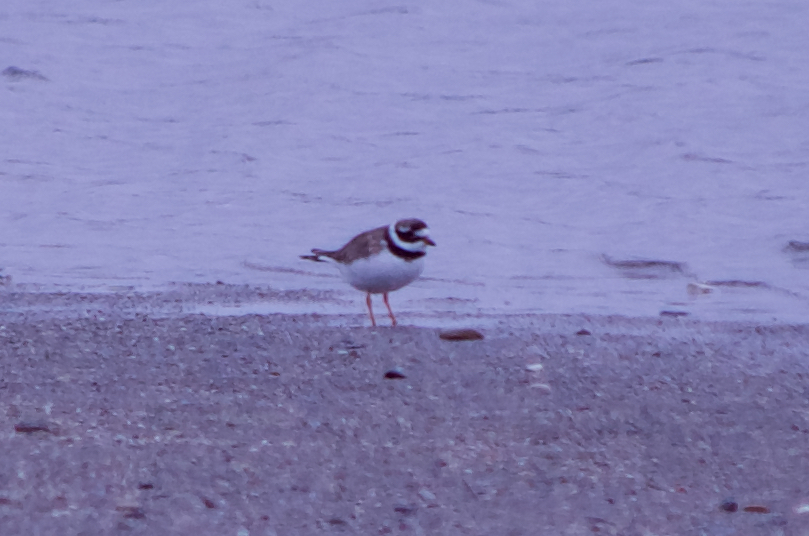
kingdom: Animalia
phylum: Chordata
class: Aves
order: Charadriiformes
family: Charadriidae
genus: Charadrius
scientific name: Charadrius hiaticula
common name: Common ringed plover
